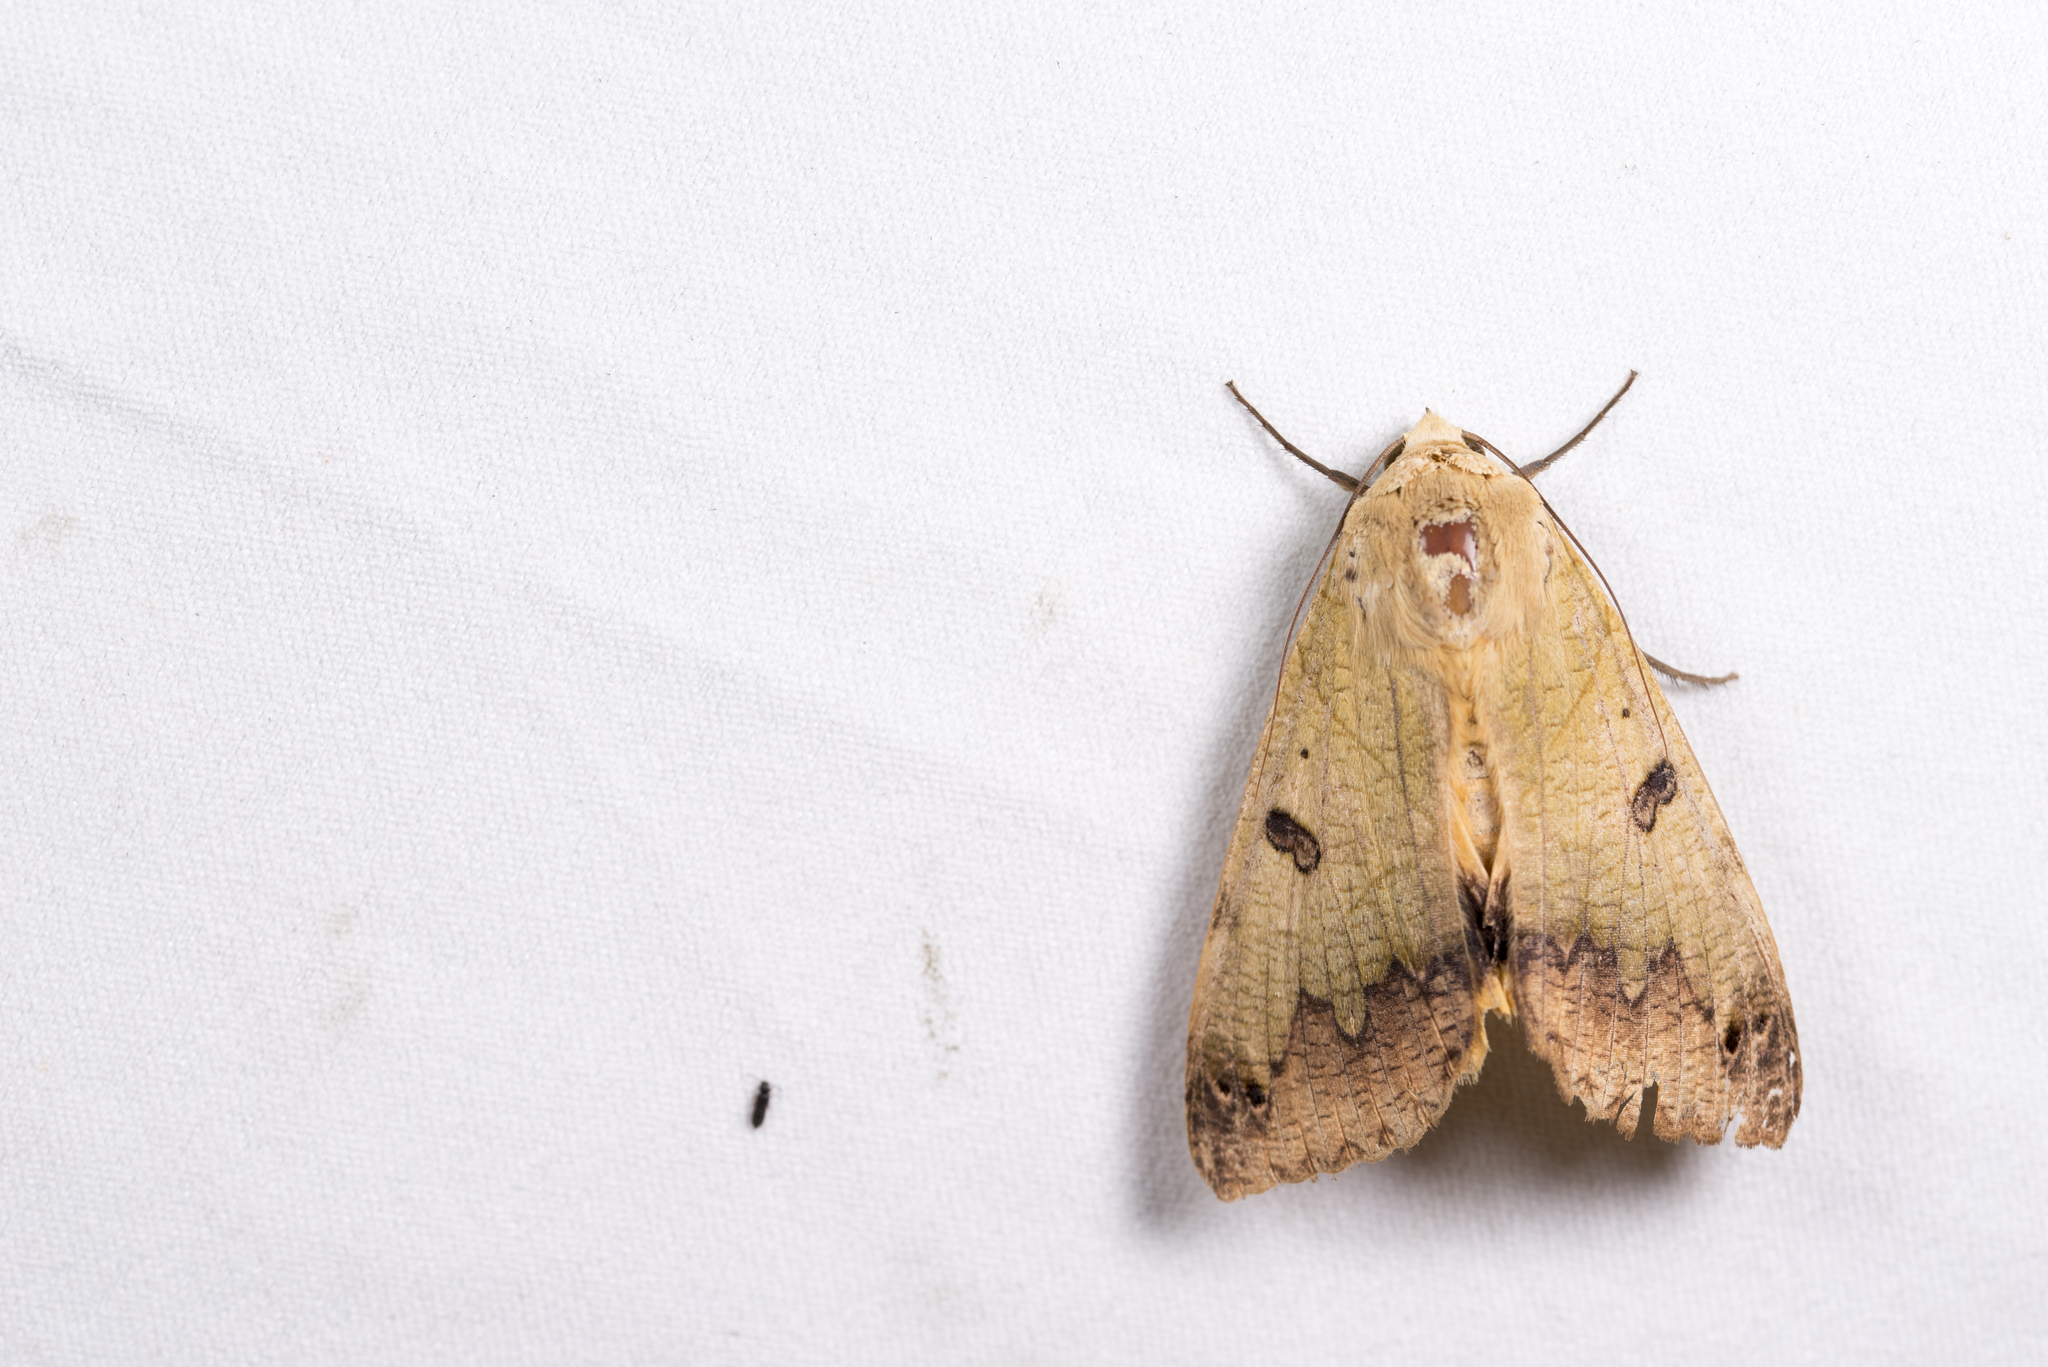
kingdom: Animalia
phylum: Arthropoda
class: Insecta
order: Lepidoptera
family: Erebidae
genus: Ophiusa
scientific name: Ophiusa tirhaca
